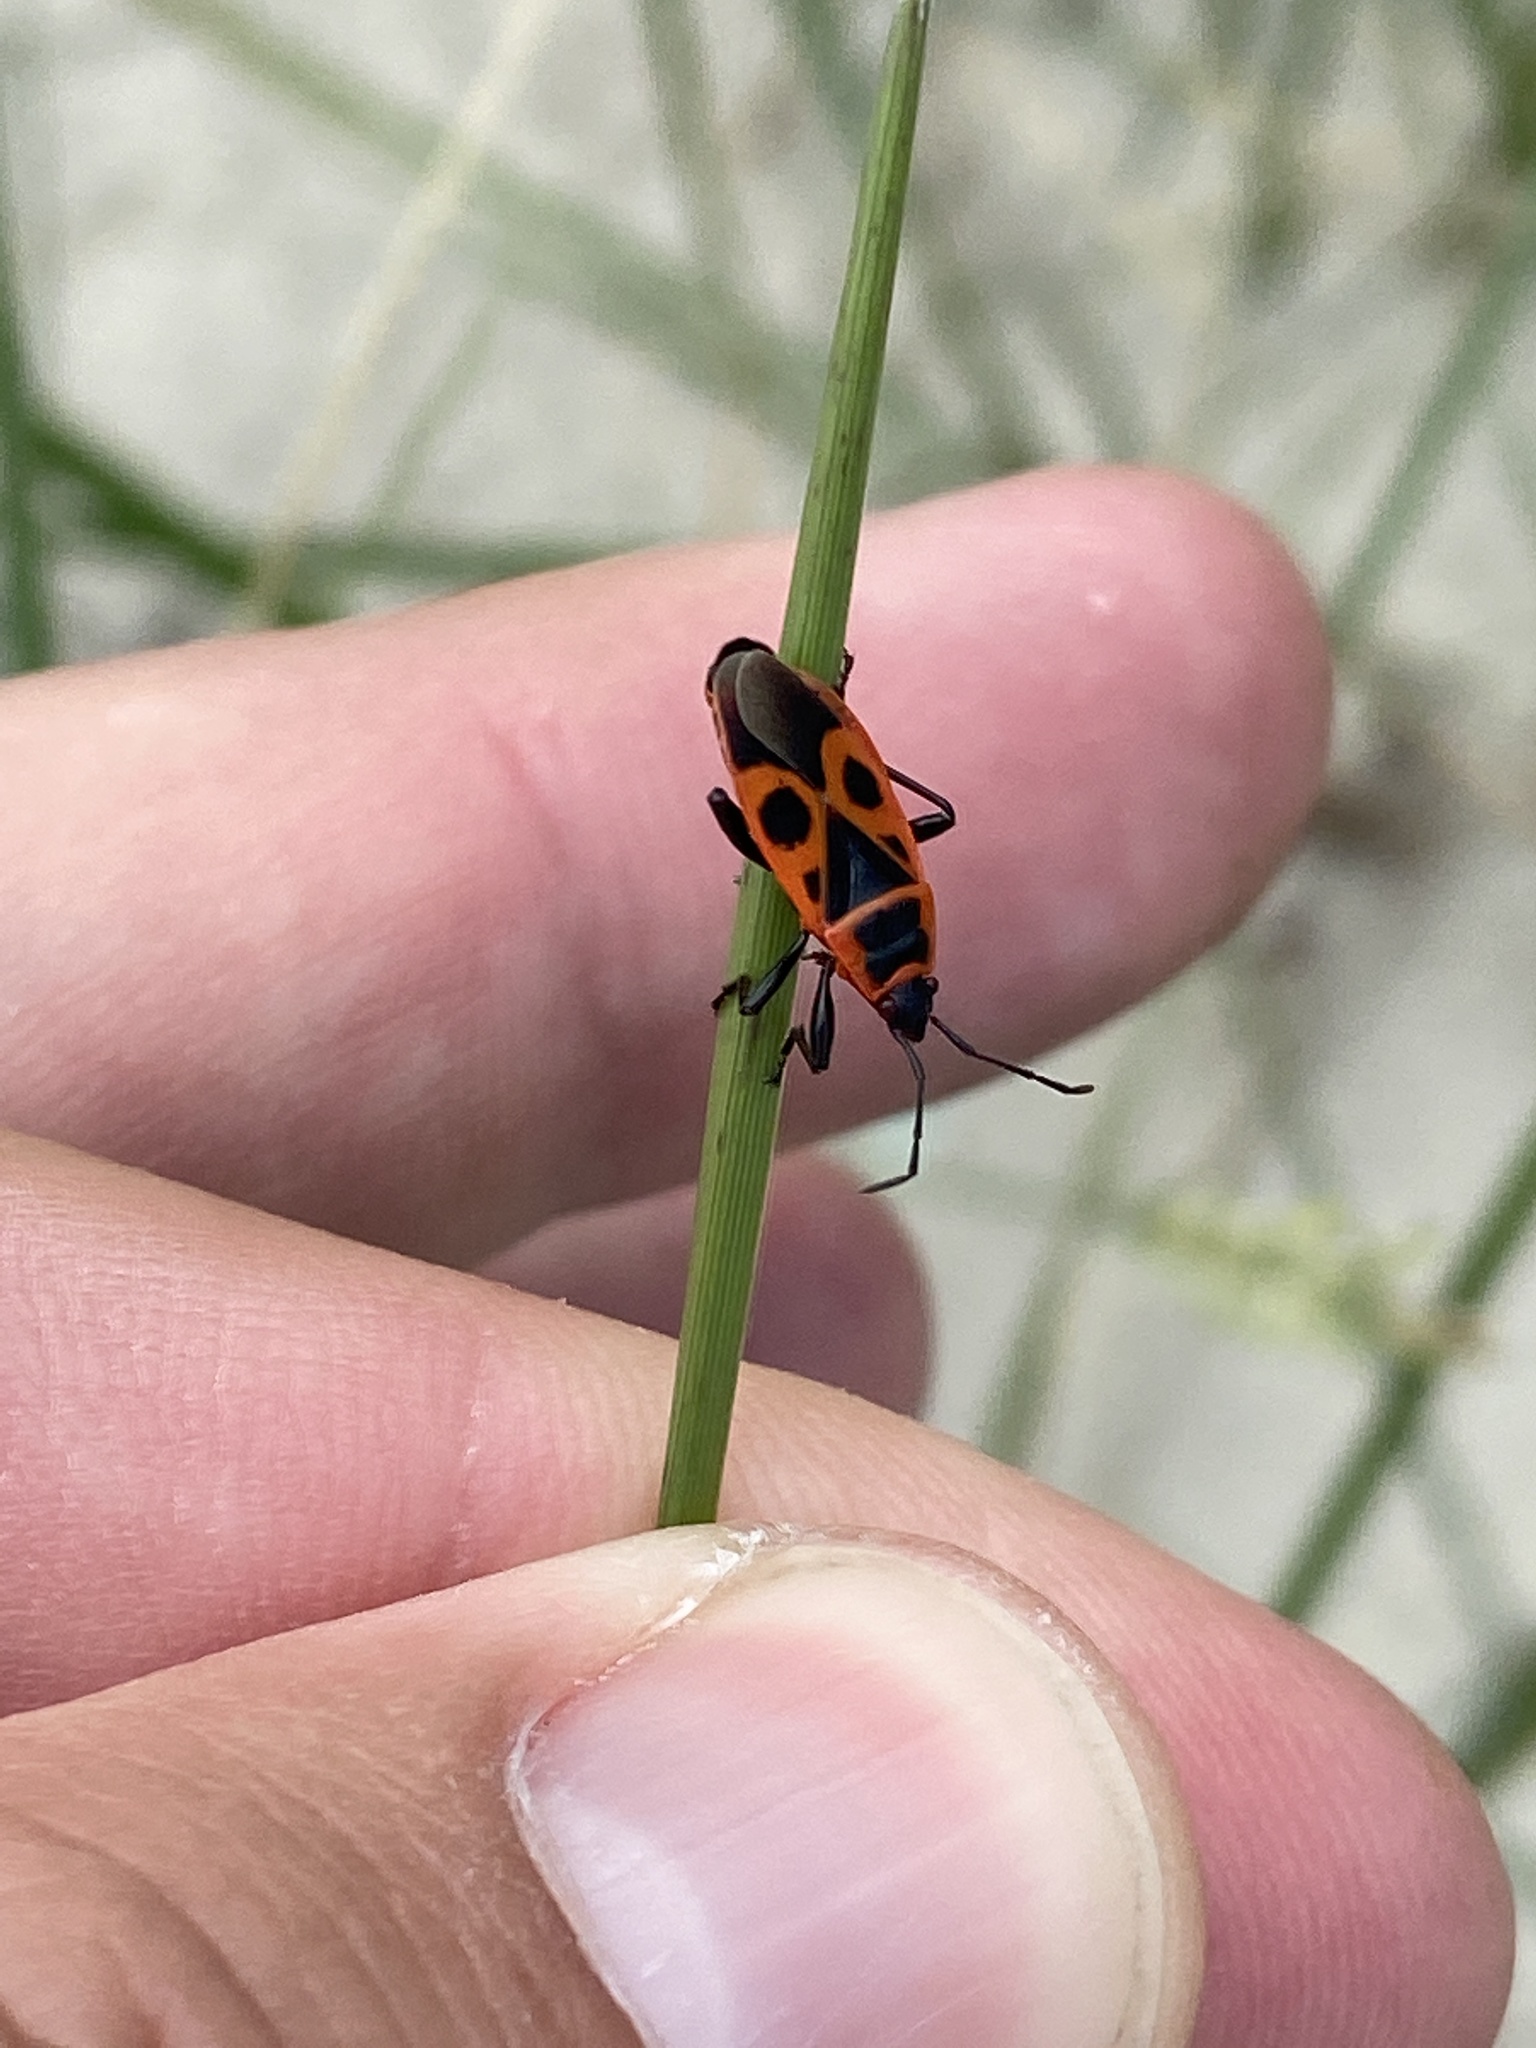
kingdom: Animalia
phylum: Arthropoda
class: Insecta
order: Hemiptera
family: Pyrrhocoridae
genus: Pyrrhocoris
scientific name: Pyrrhocoris apterus
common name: Firebug
